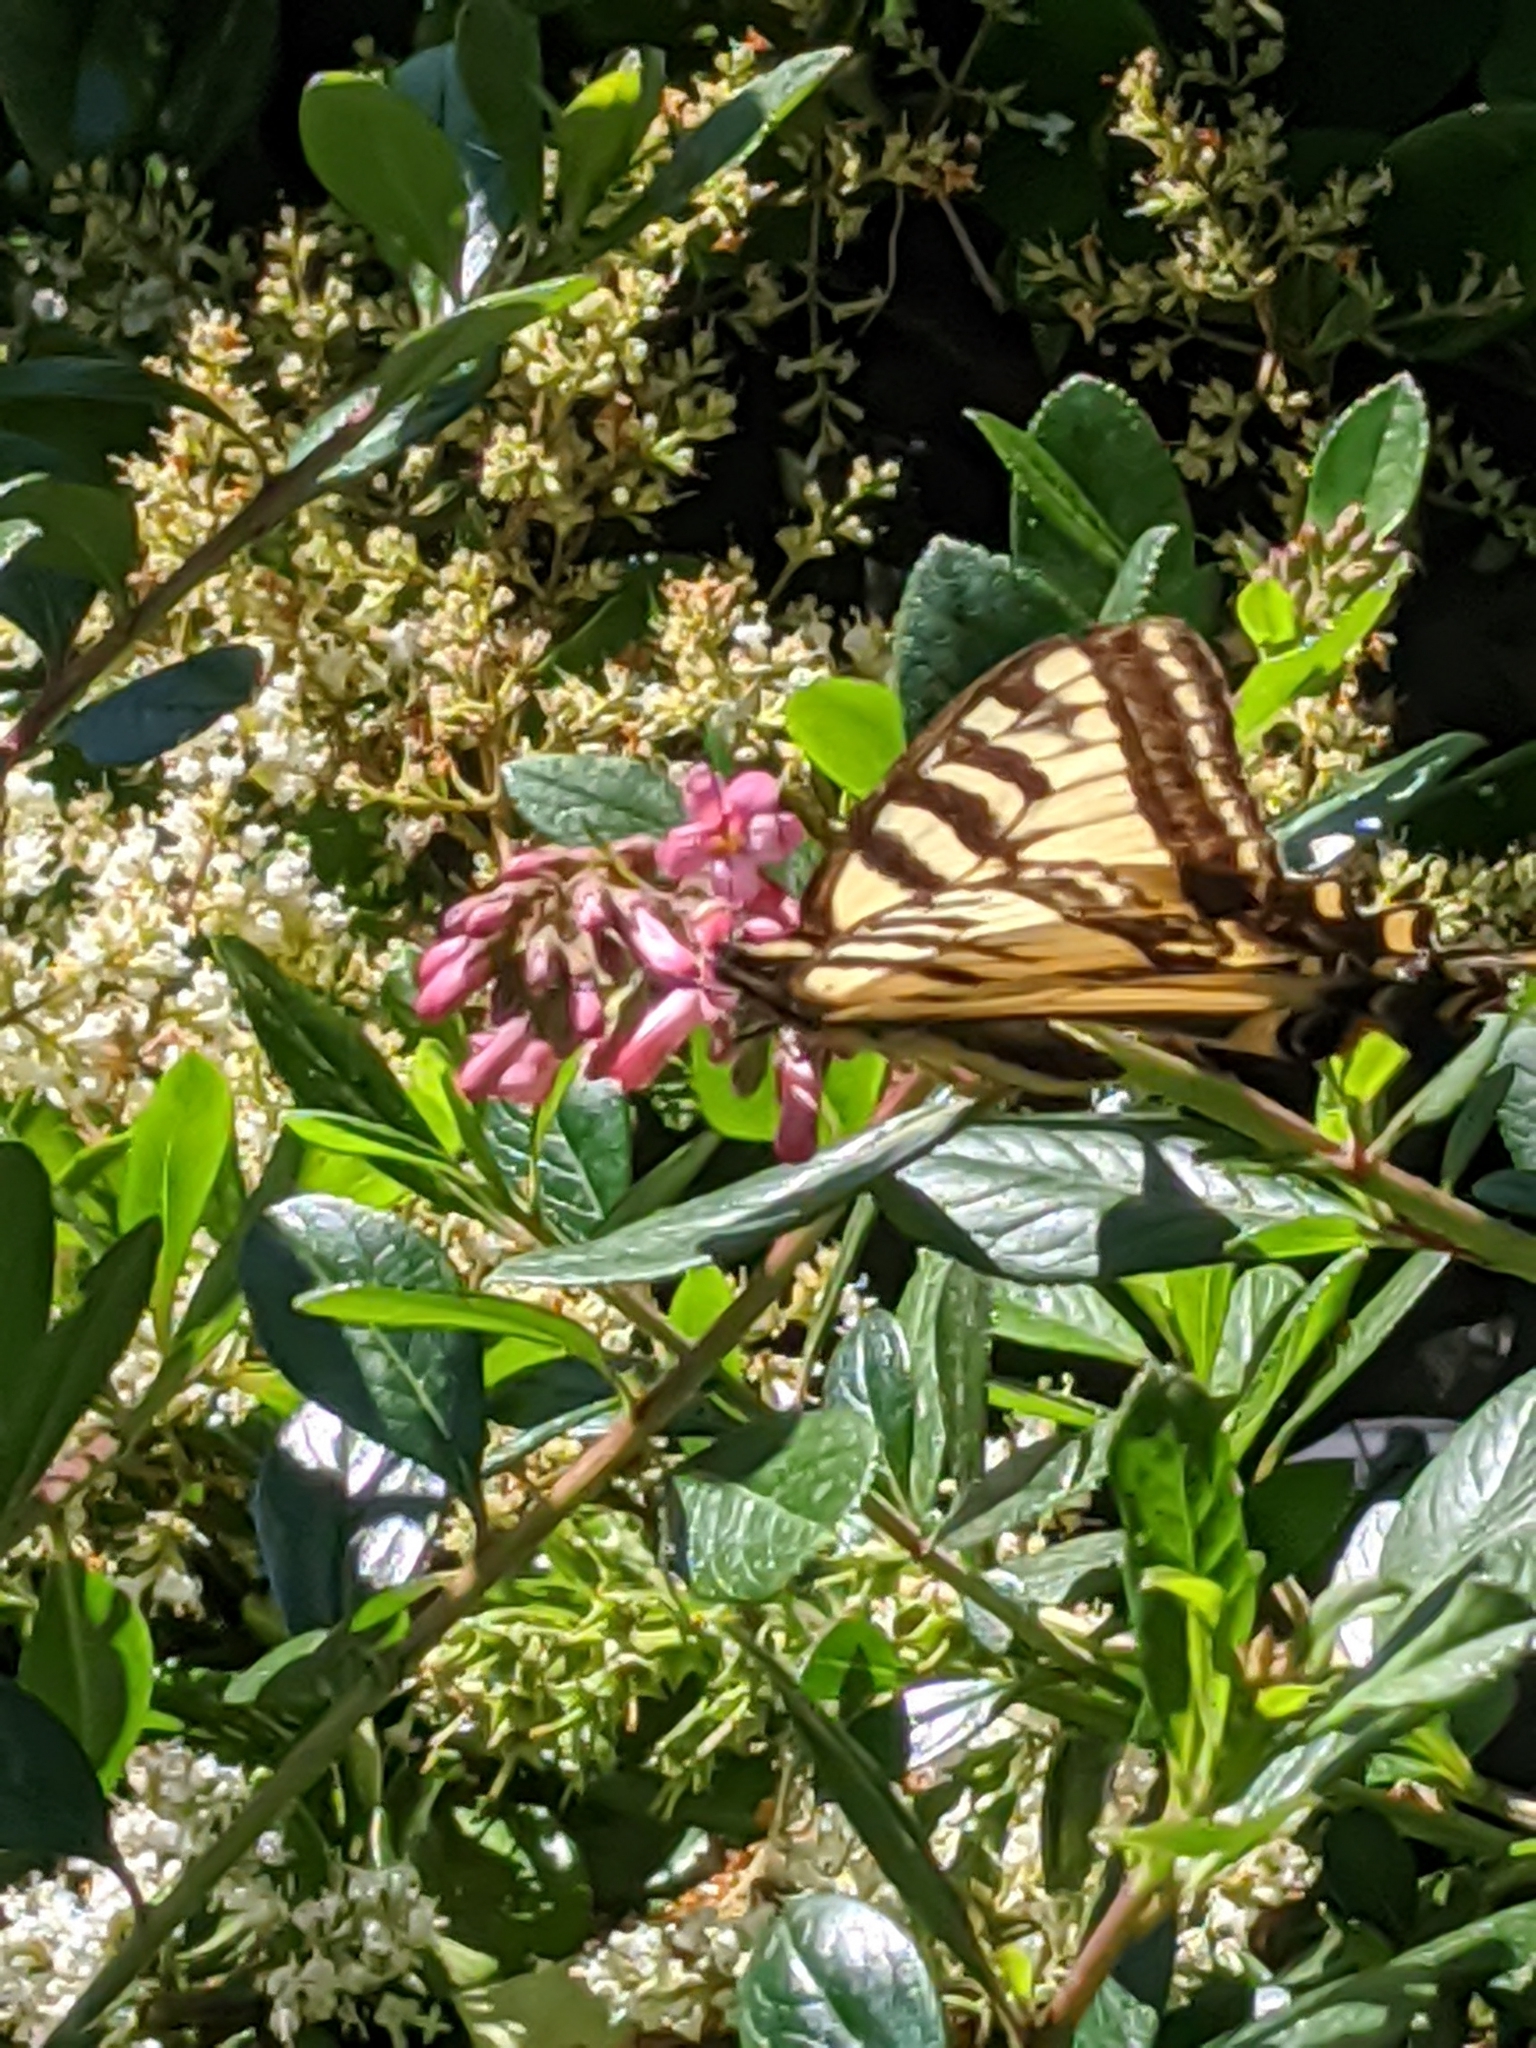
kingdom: Animalia
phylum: Arthropoda
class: Insecta
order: Lepidoptera
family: Papilionidae
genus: Papilio
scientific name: Papilio rutulus
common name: Western tiger swallowtail
